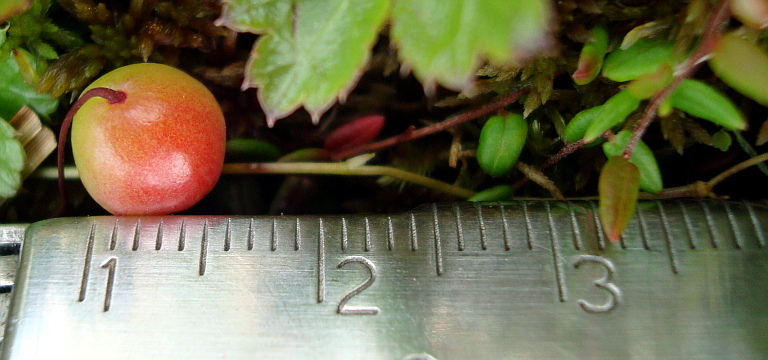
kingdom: Plantae
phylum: Tracheophyta
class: Magnoliopsida
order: Ericales
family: Ericaceae
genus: Vaccinium
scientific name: Vaccinium microcarpum
